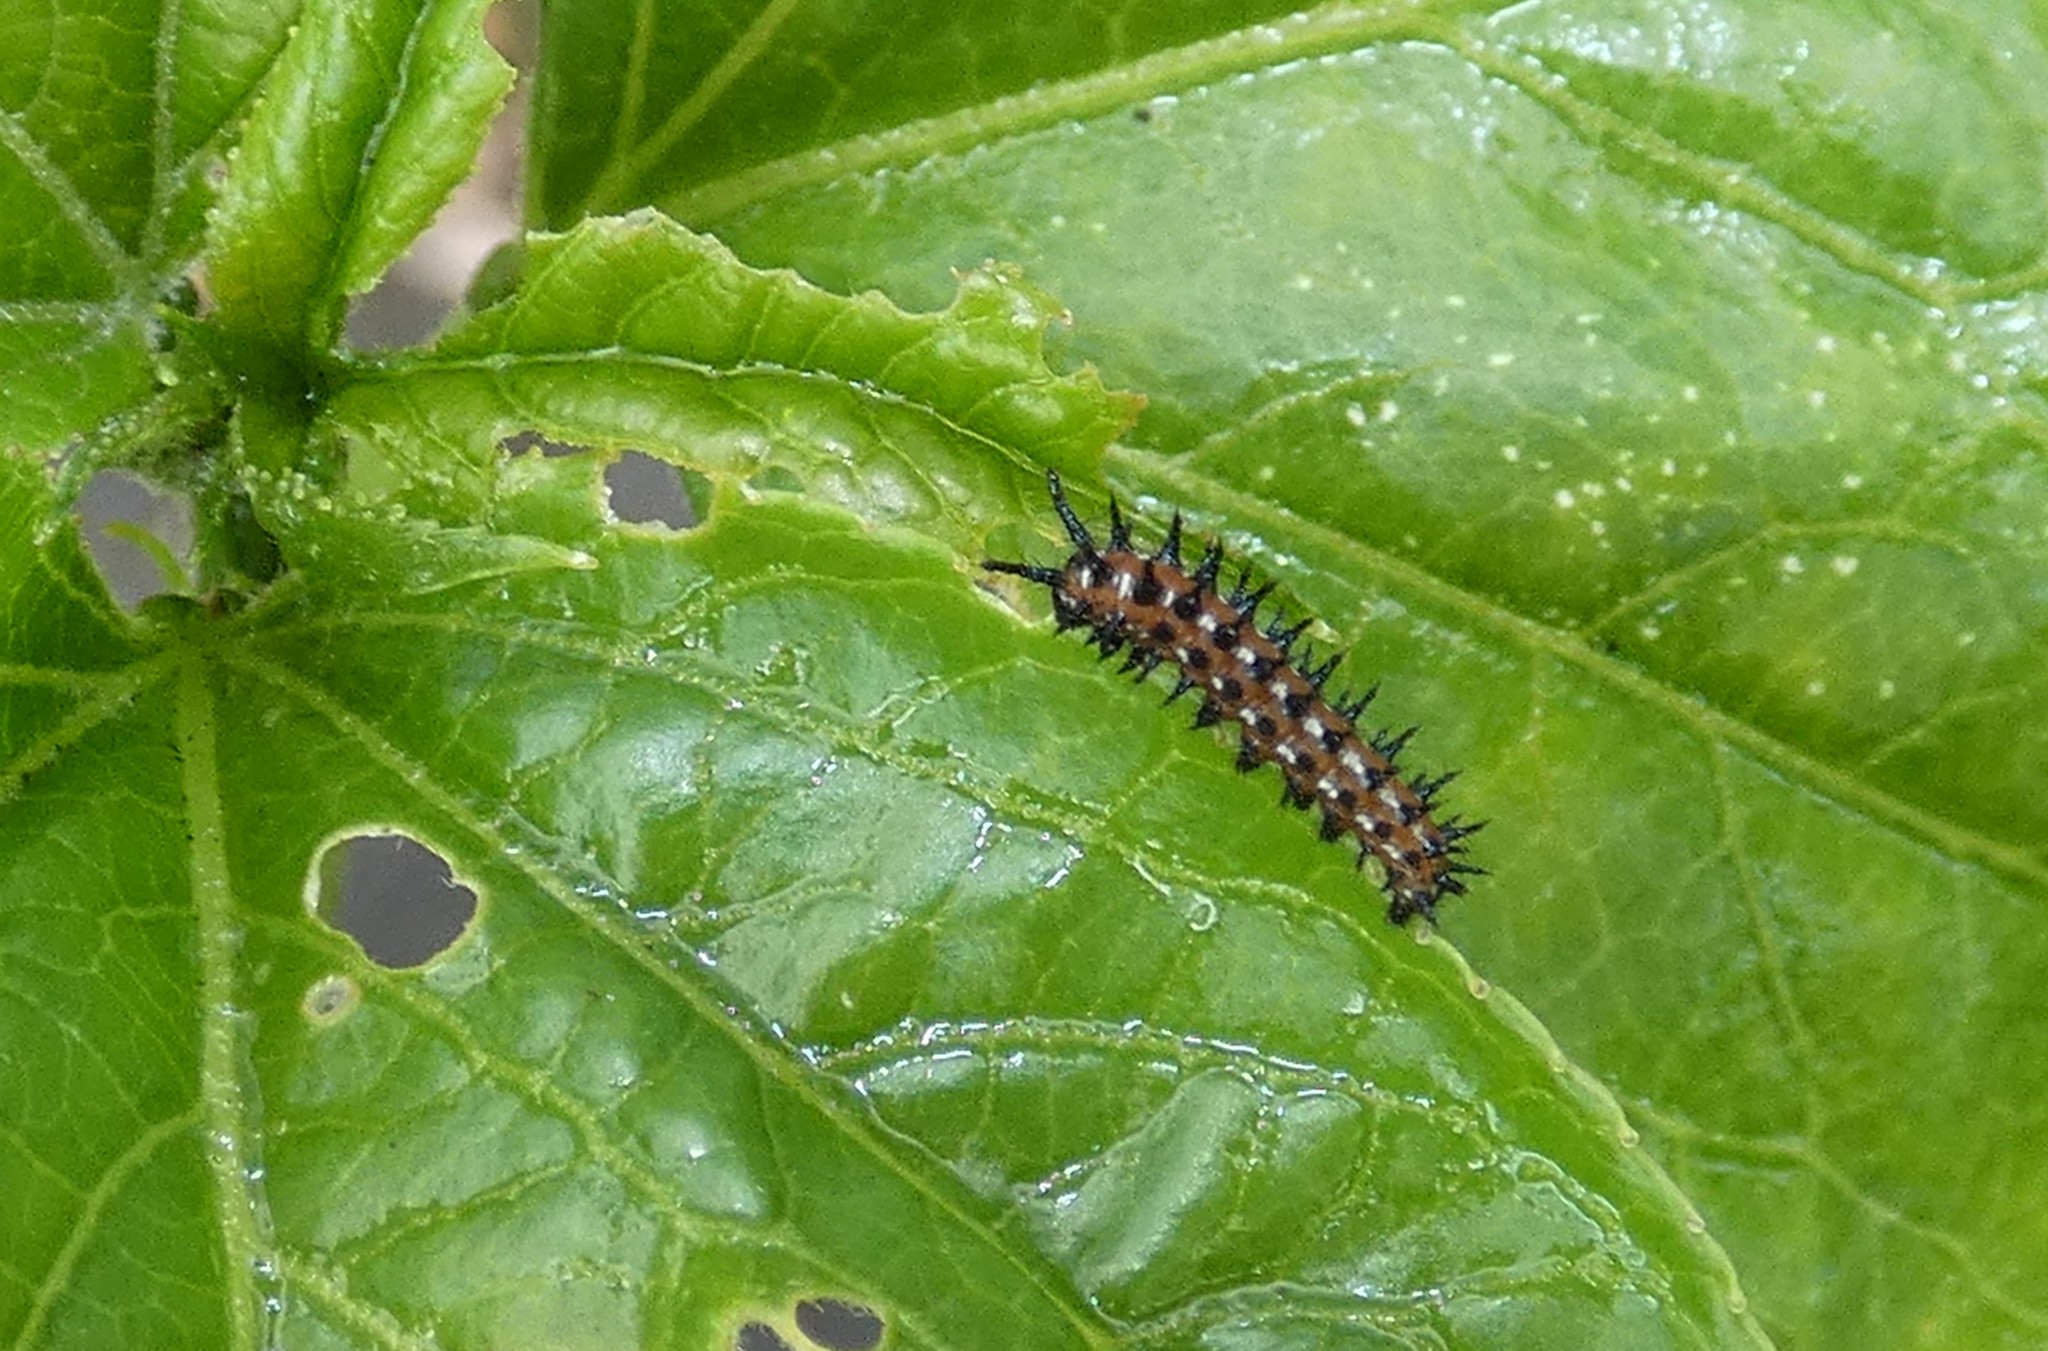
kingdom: Animalia
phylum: Arthropoda
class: Insecta
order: Lepidoptera
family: Nymphalidae
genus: Euptoieta
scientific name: Euptoieta claudia
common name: Variegated fritillary
